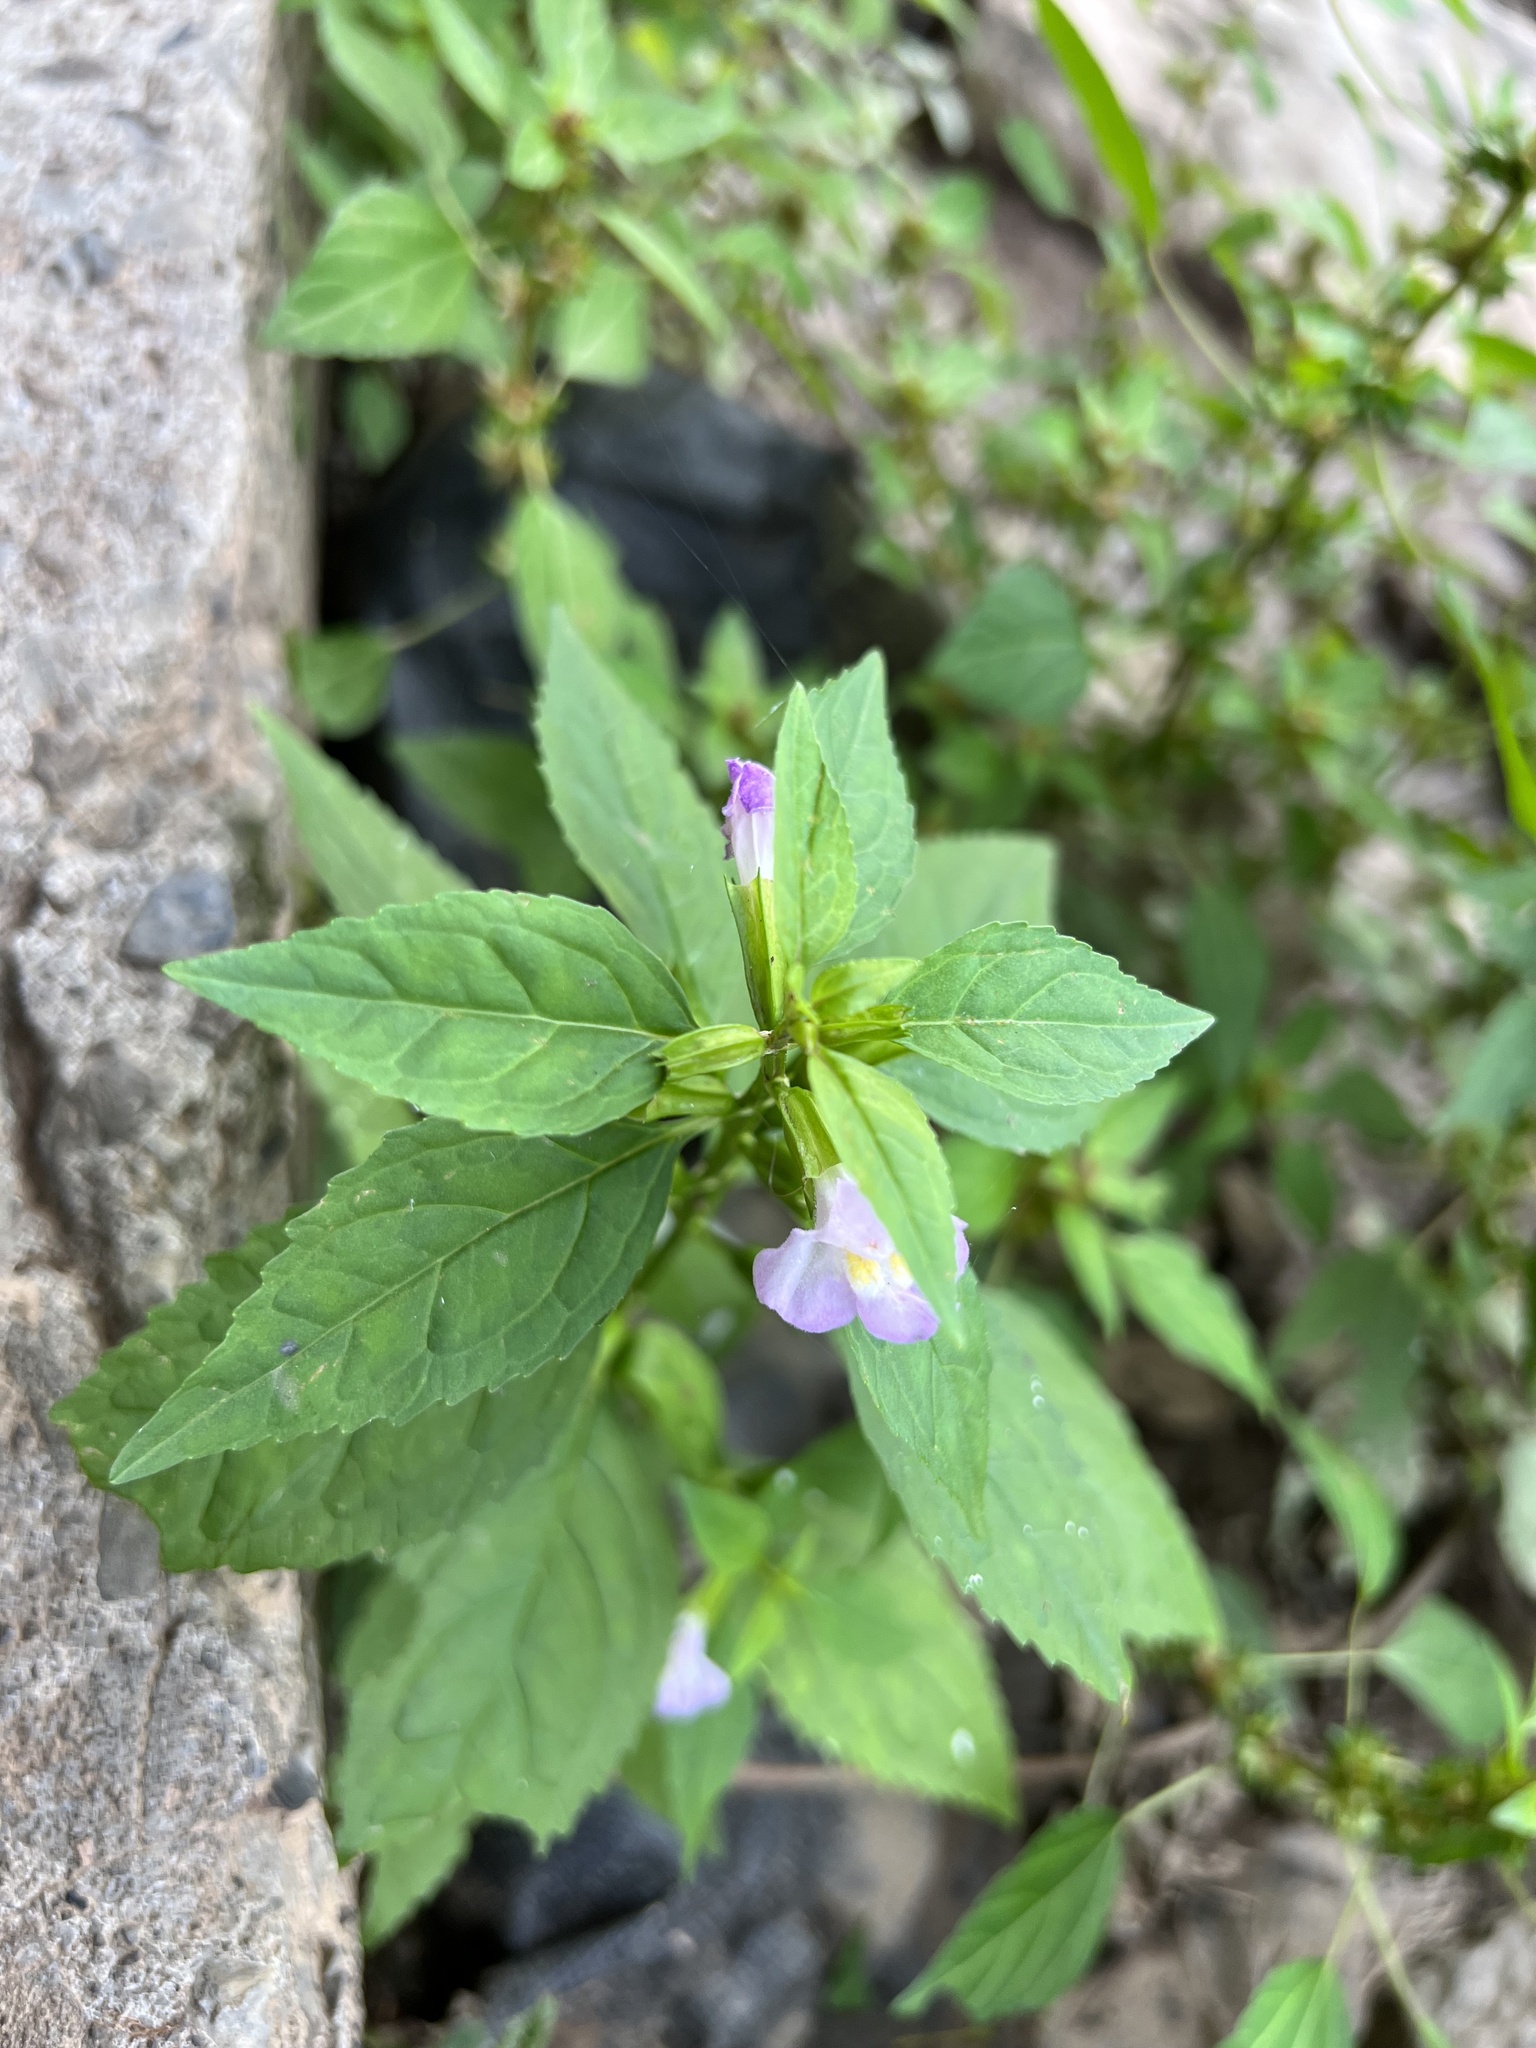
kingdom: Plantae
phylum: Tracheophyta
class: Magnoliopsida
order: Lamiales
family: Phrymaceae
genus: Mimulus
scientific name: Mimulus alatus
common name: Sharp-wing monkey-flower
